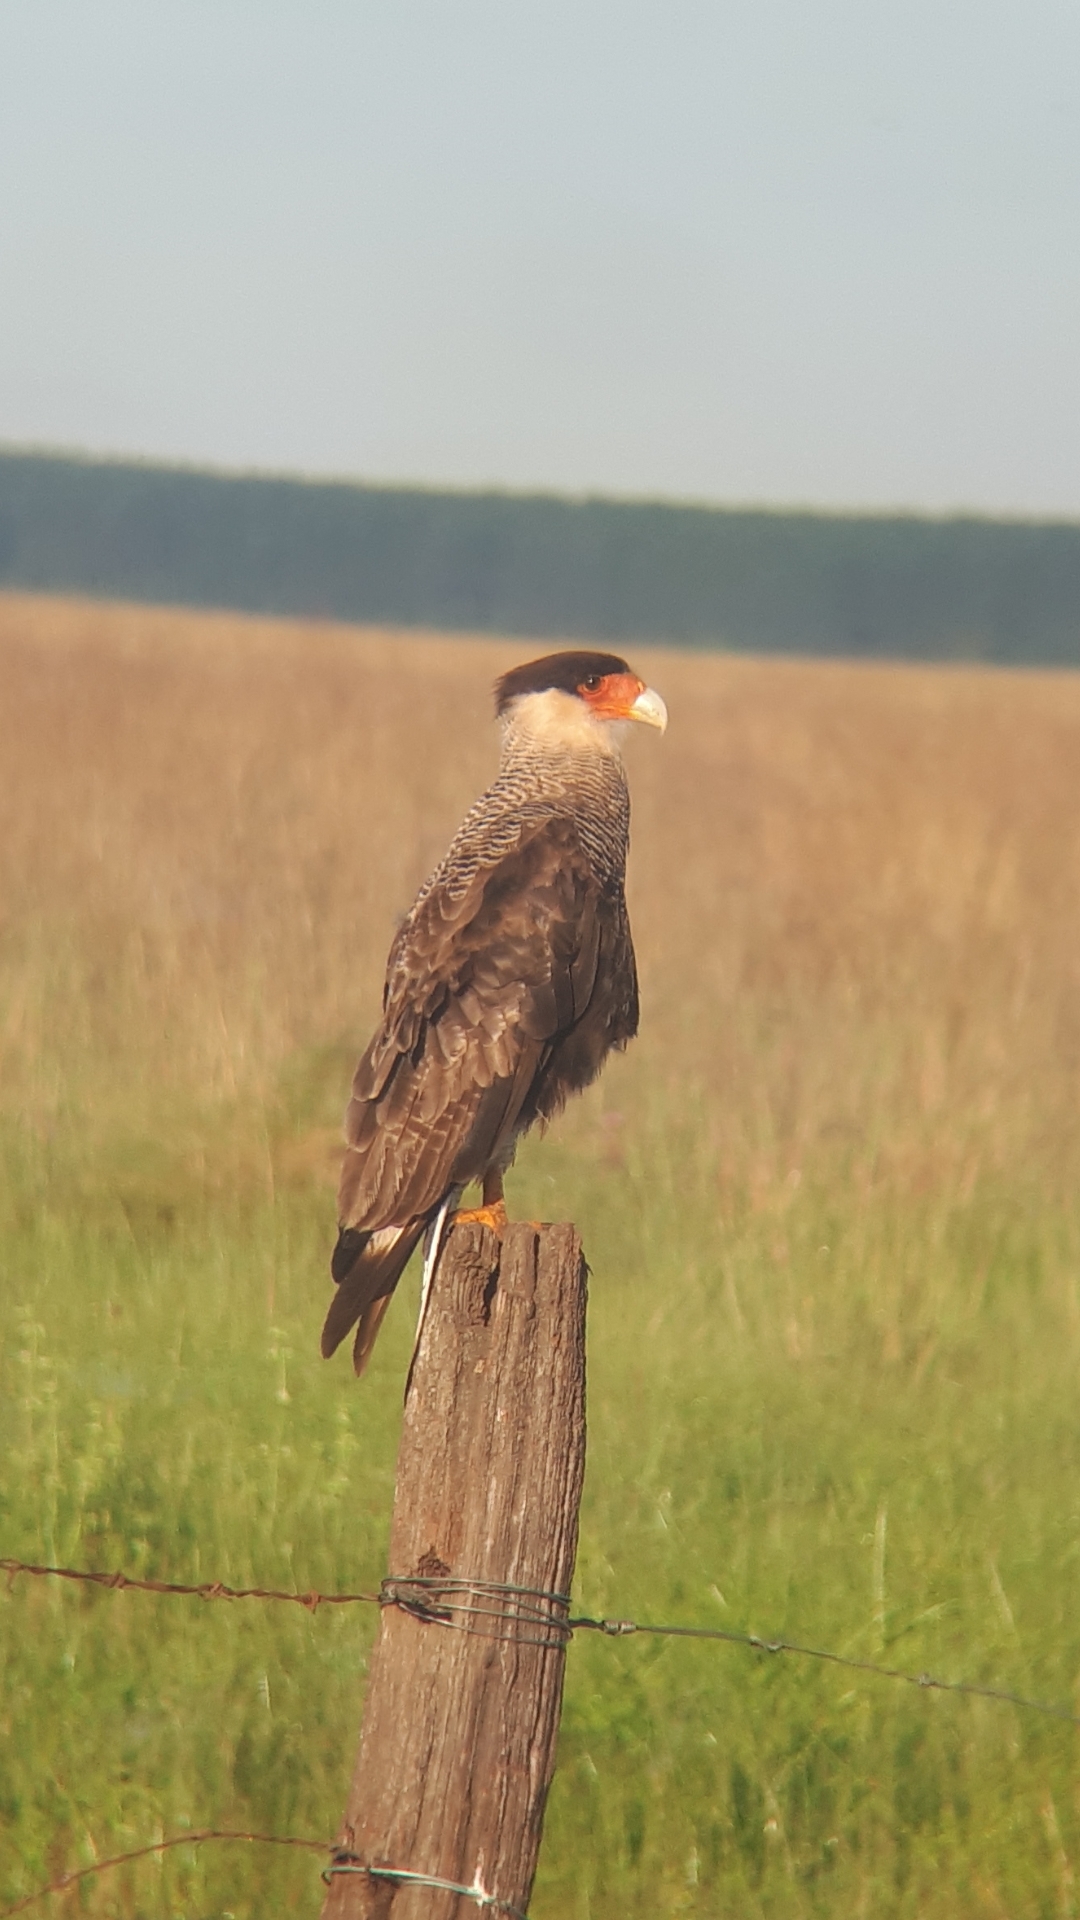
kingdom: Animalia
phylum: Chordata
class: Aves
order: Falconiformes
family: Falconidae
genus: Caracara
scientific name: Caracara plancus
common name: Southern caracara
